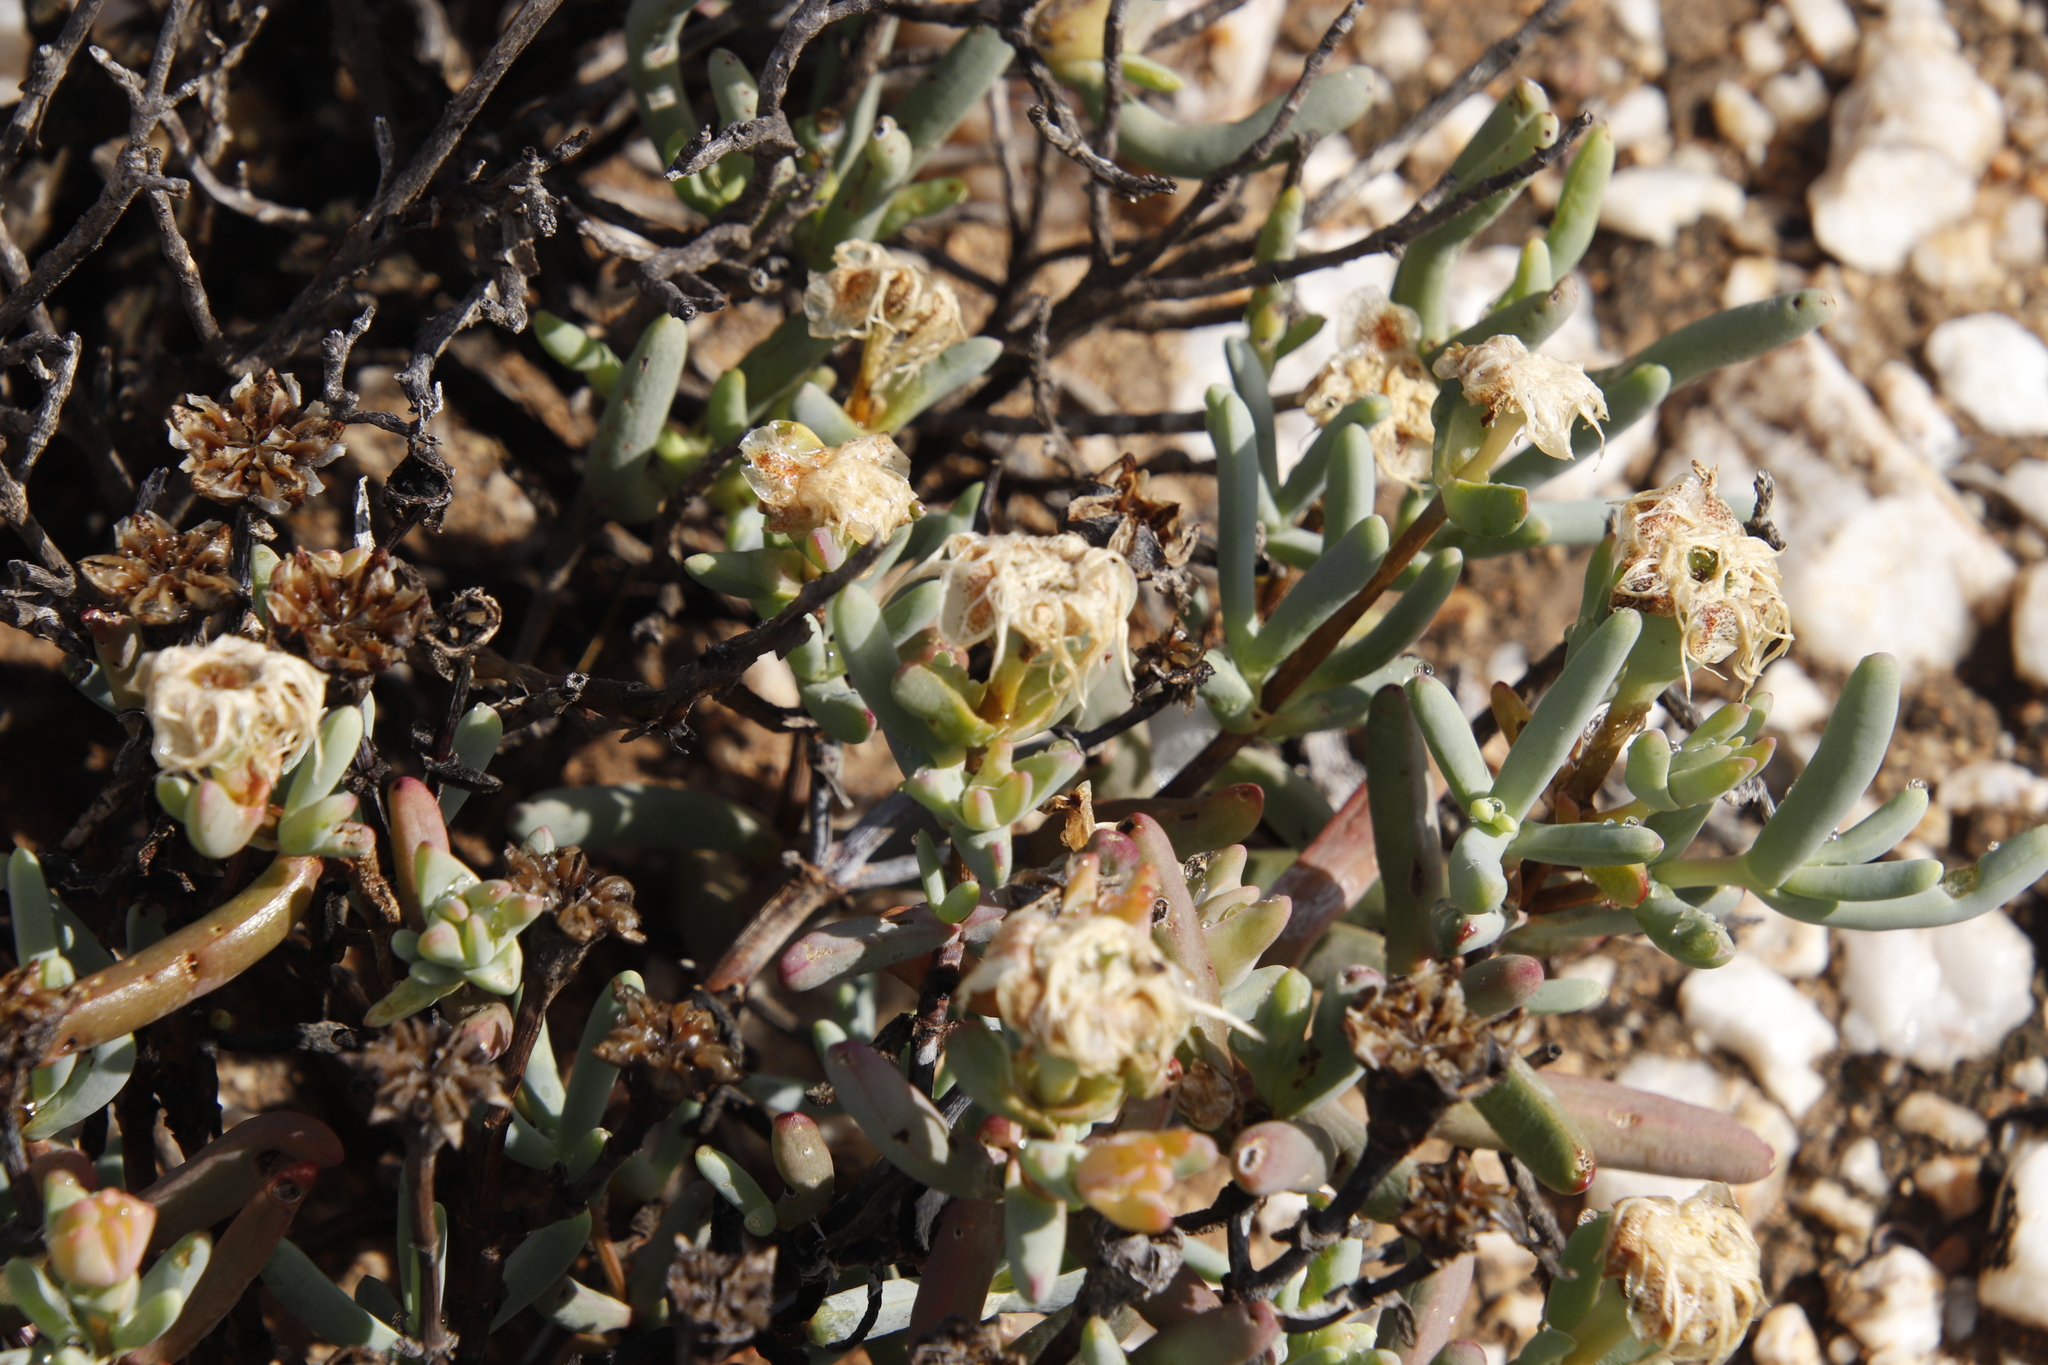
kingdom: Plantae
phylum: Tracheophyta
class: Magnoliopsida
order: Caryophyllales
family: Aizoaceae
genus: Lampranthus
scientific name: Lampranthus watermeyeri
